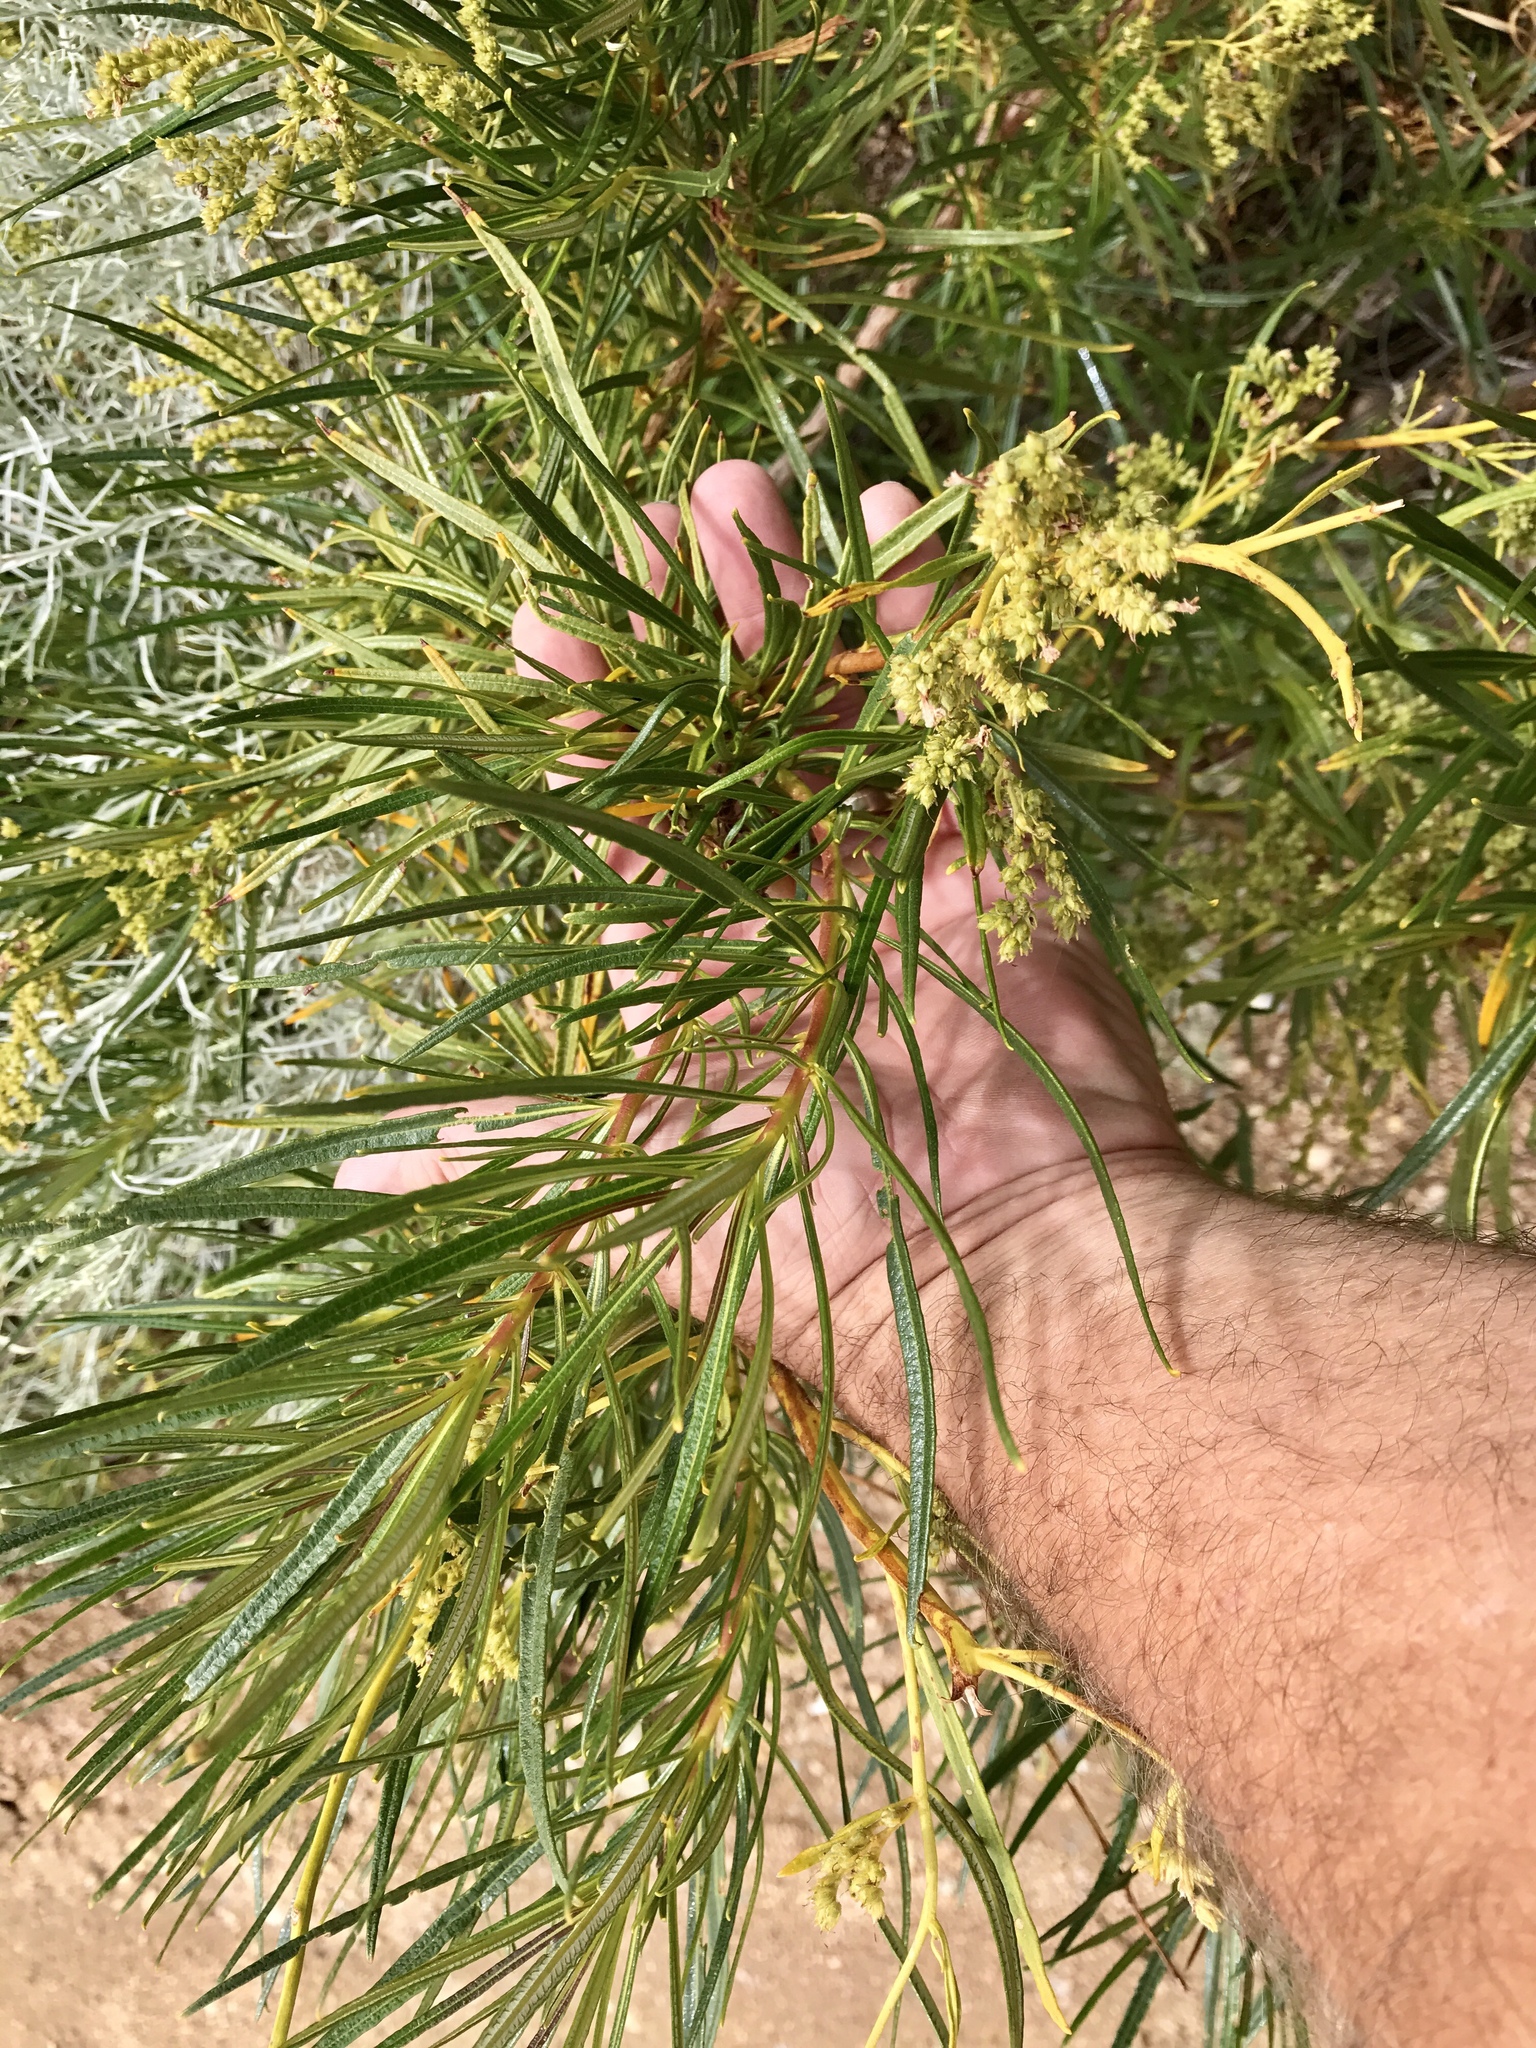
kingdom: Plantae
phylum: Tracheophyta
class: Magnoliopsida
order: Boraginales
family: Namaceae
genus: Eriodictyon
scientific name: Eriodictyon angustifolium
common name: Narrow-leaf yerba santa
